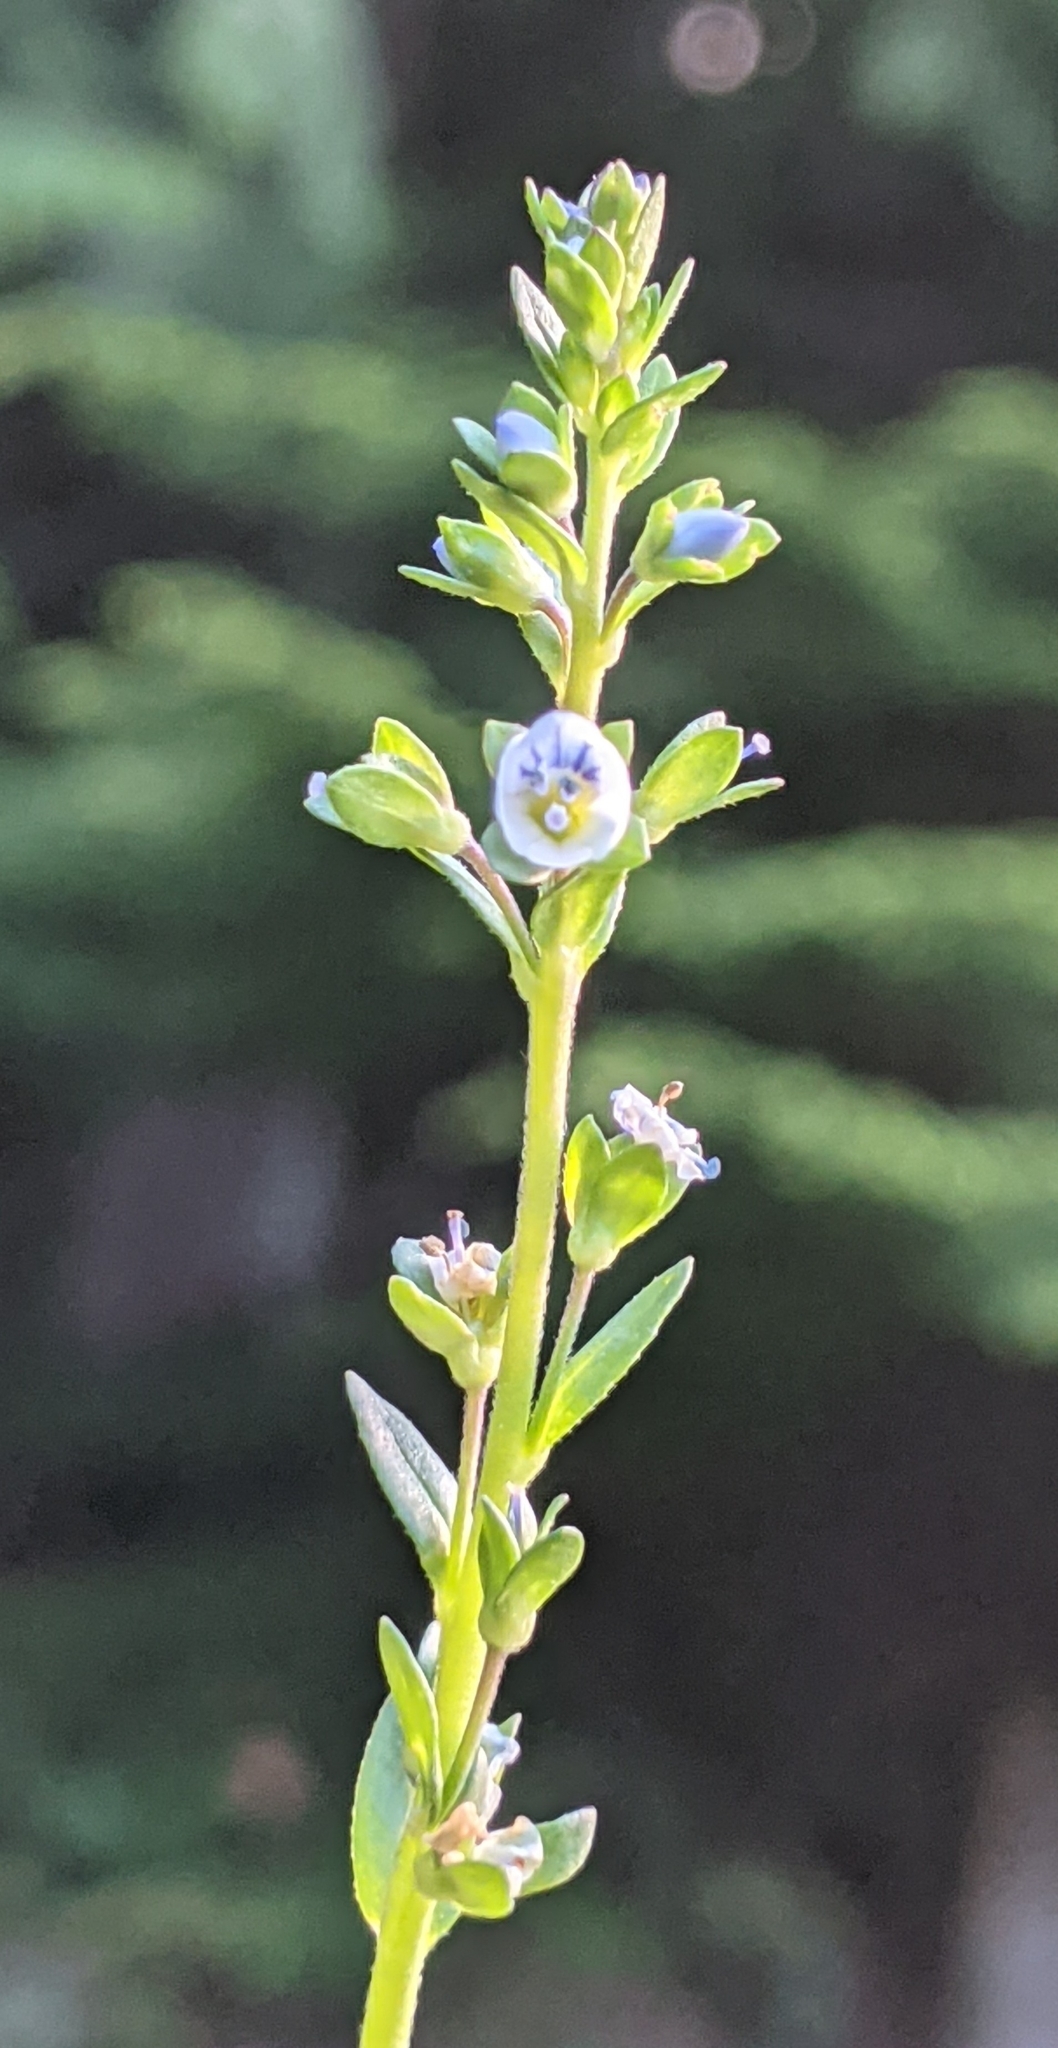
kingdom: Plantae
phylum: Tracheophyta
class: Magnoliopsida
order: Lamiales
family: Plantaginaceae
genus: Veronica
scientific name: Veronica serpyllifolia
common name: Thyme-leaved speedwell
